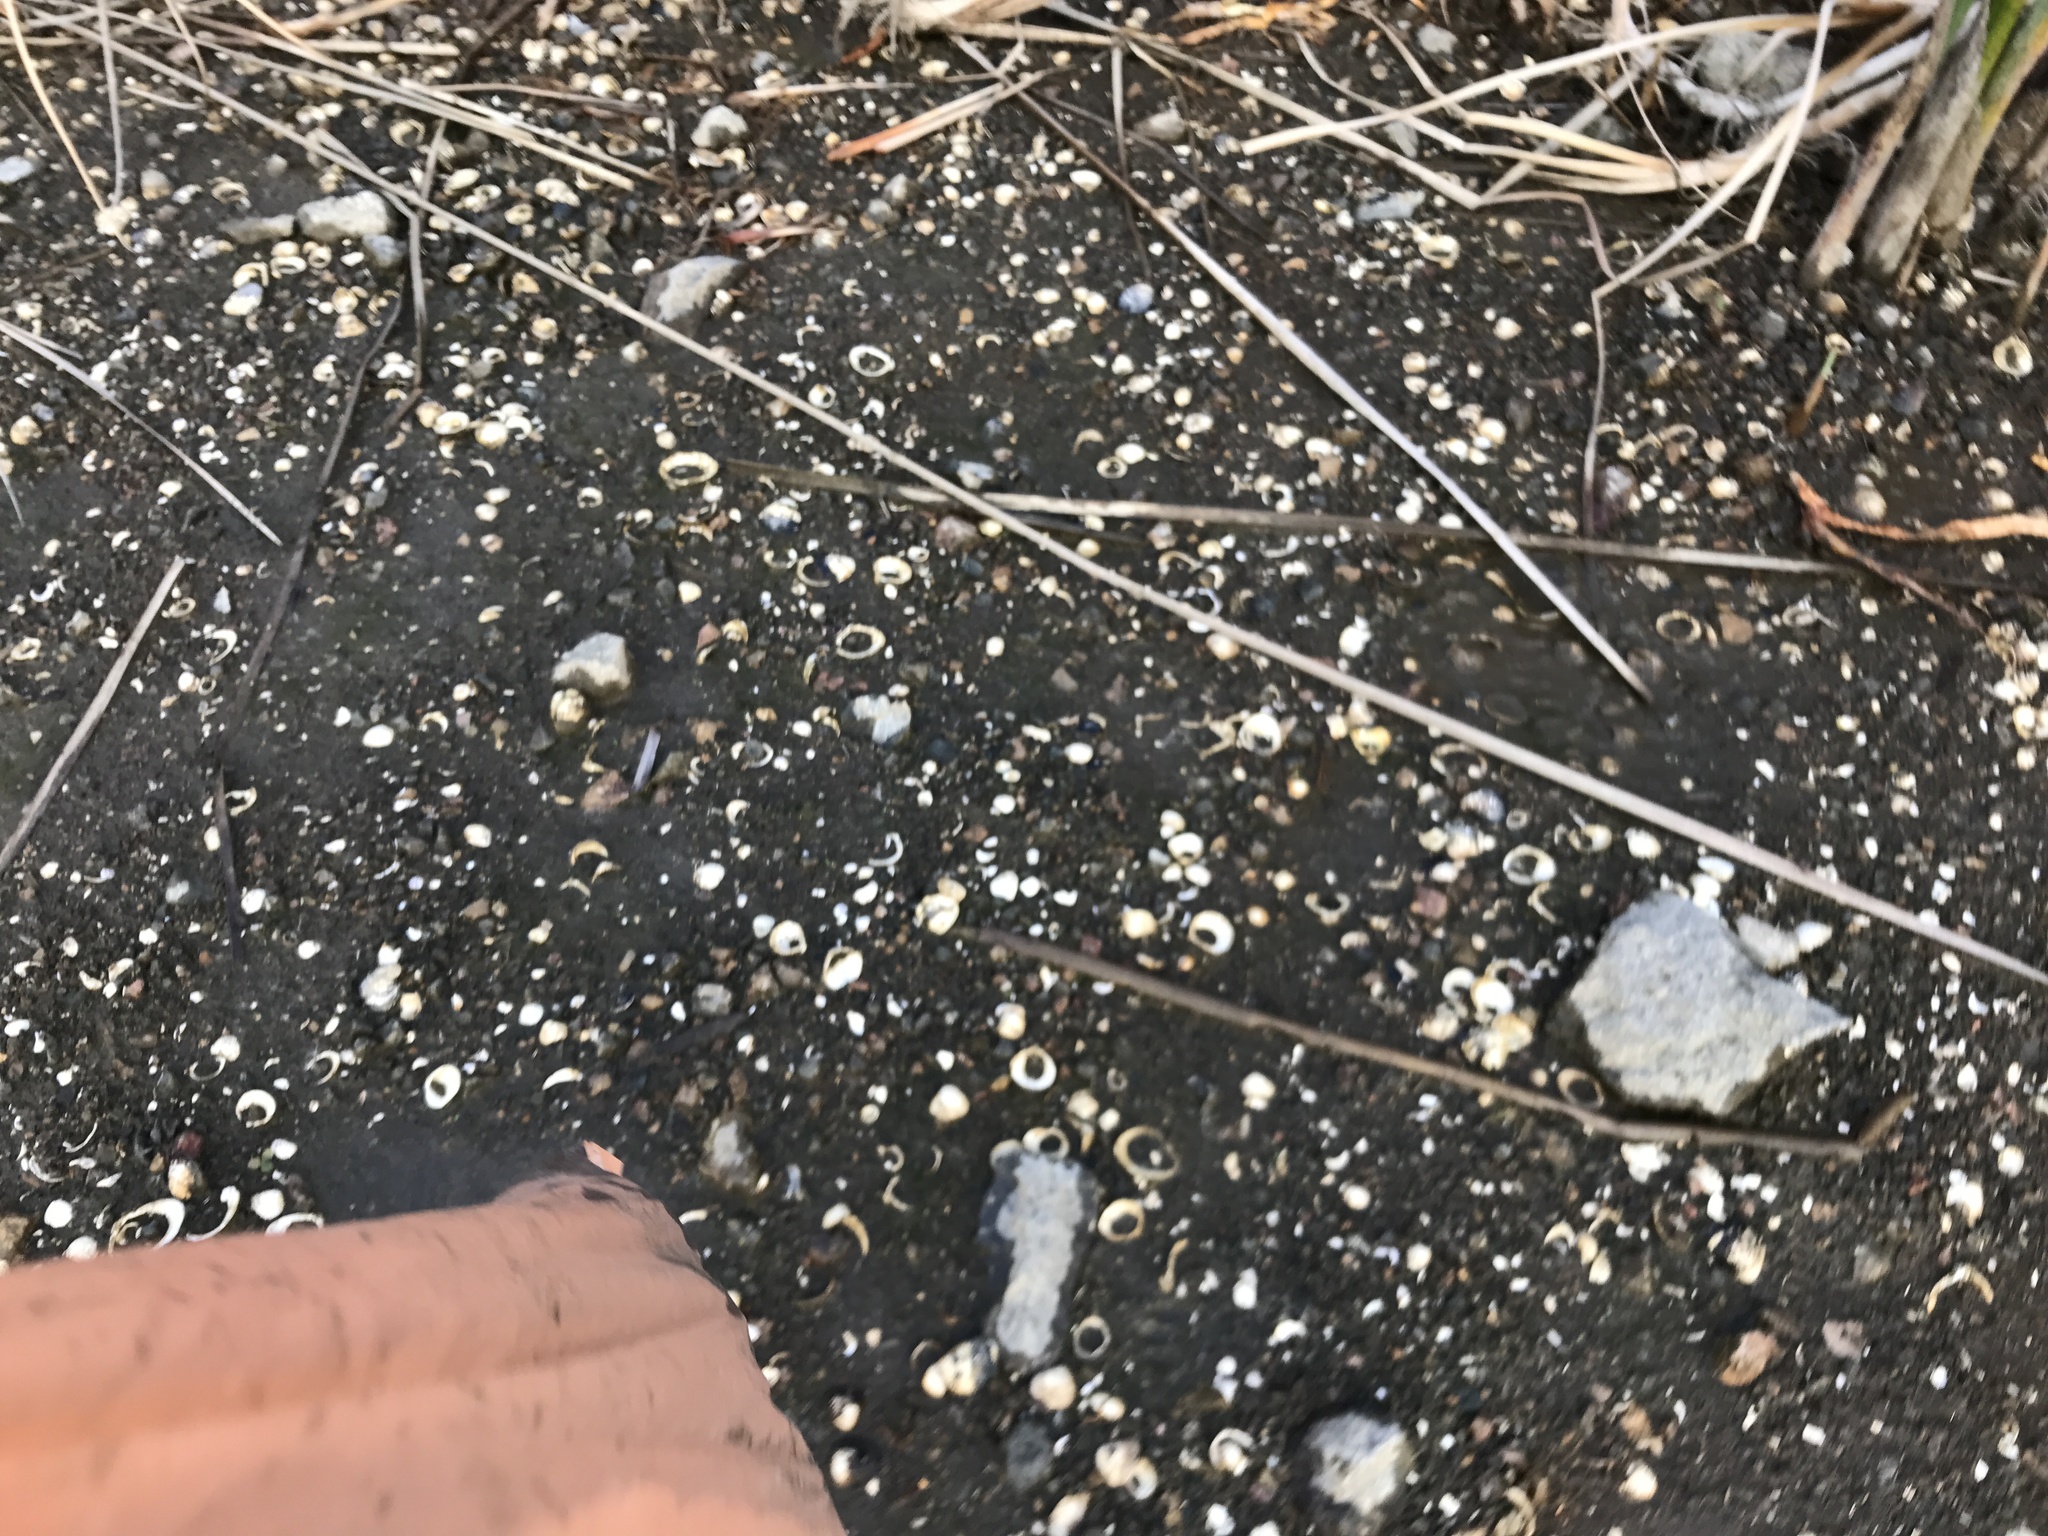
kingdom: Animalia
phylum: Mollusca
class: Bivalvia
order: Venerida
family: Cyrenidae
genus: Corbicula
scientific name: Corbicula fluminea
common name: Asian clam
